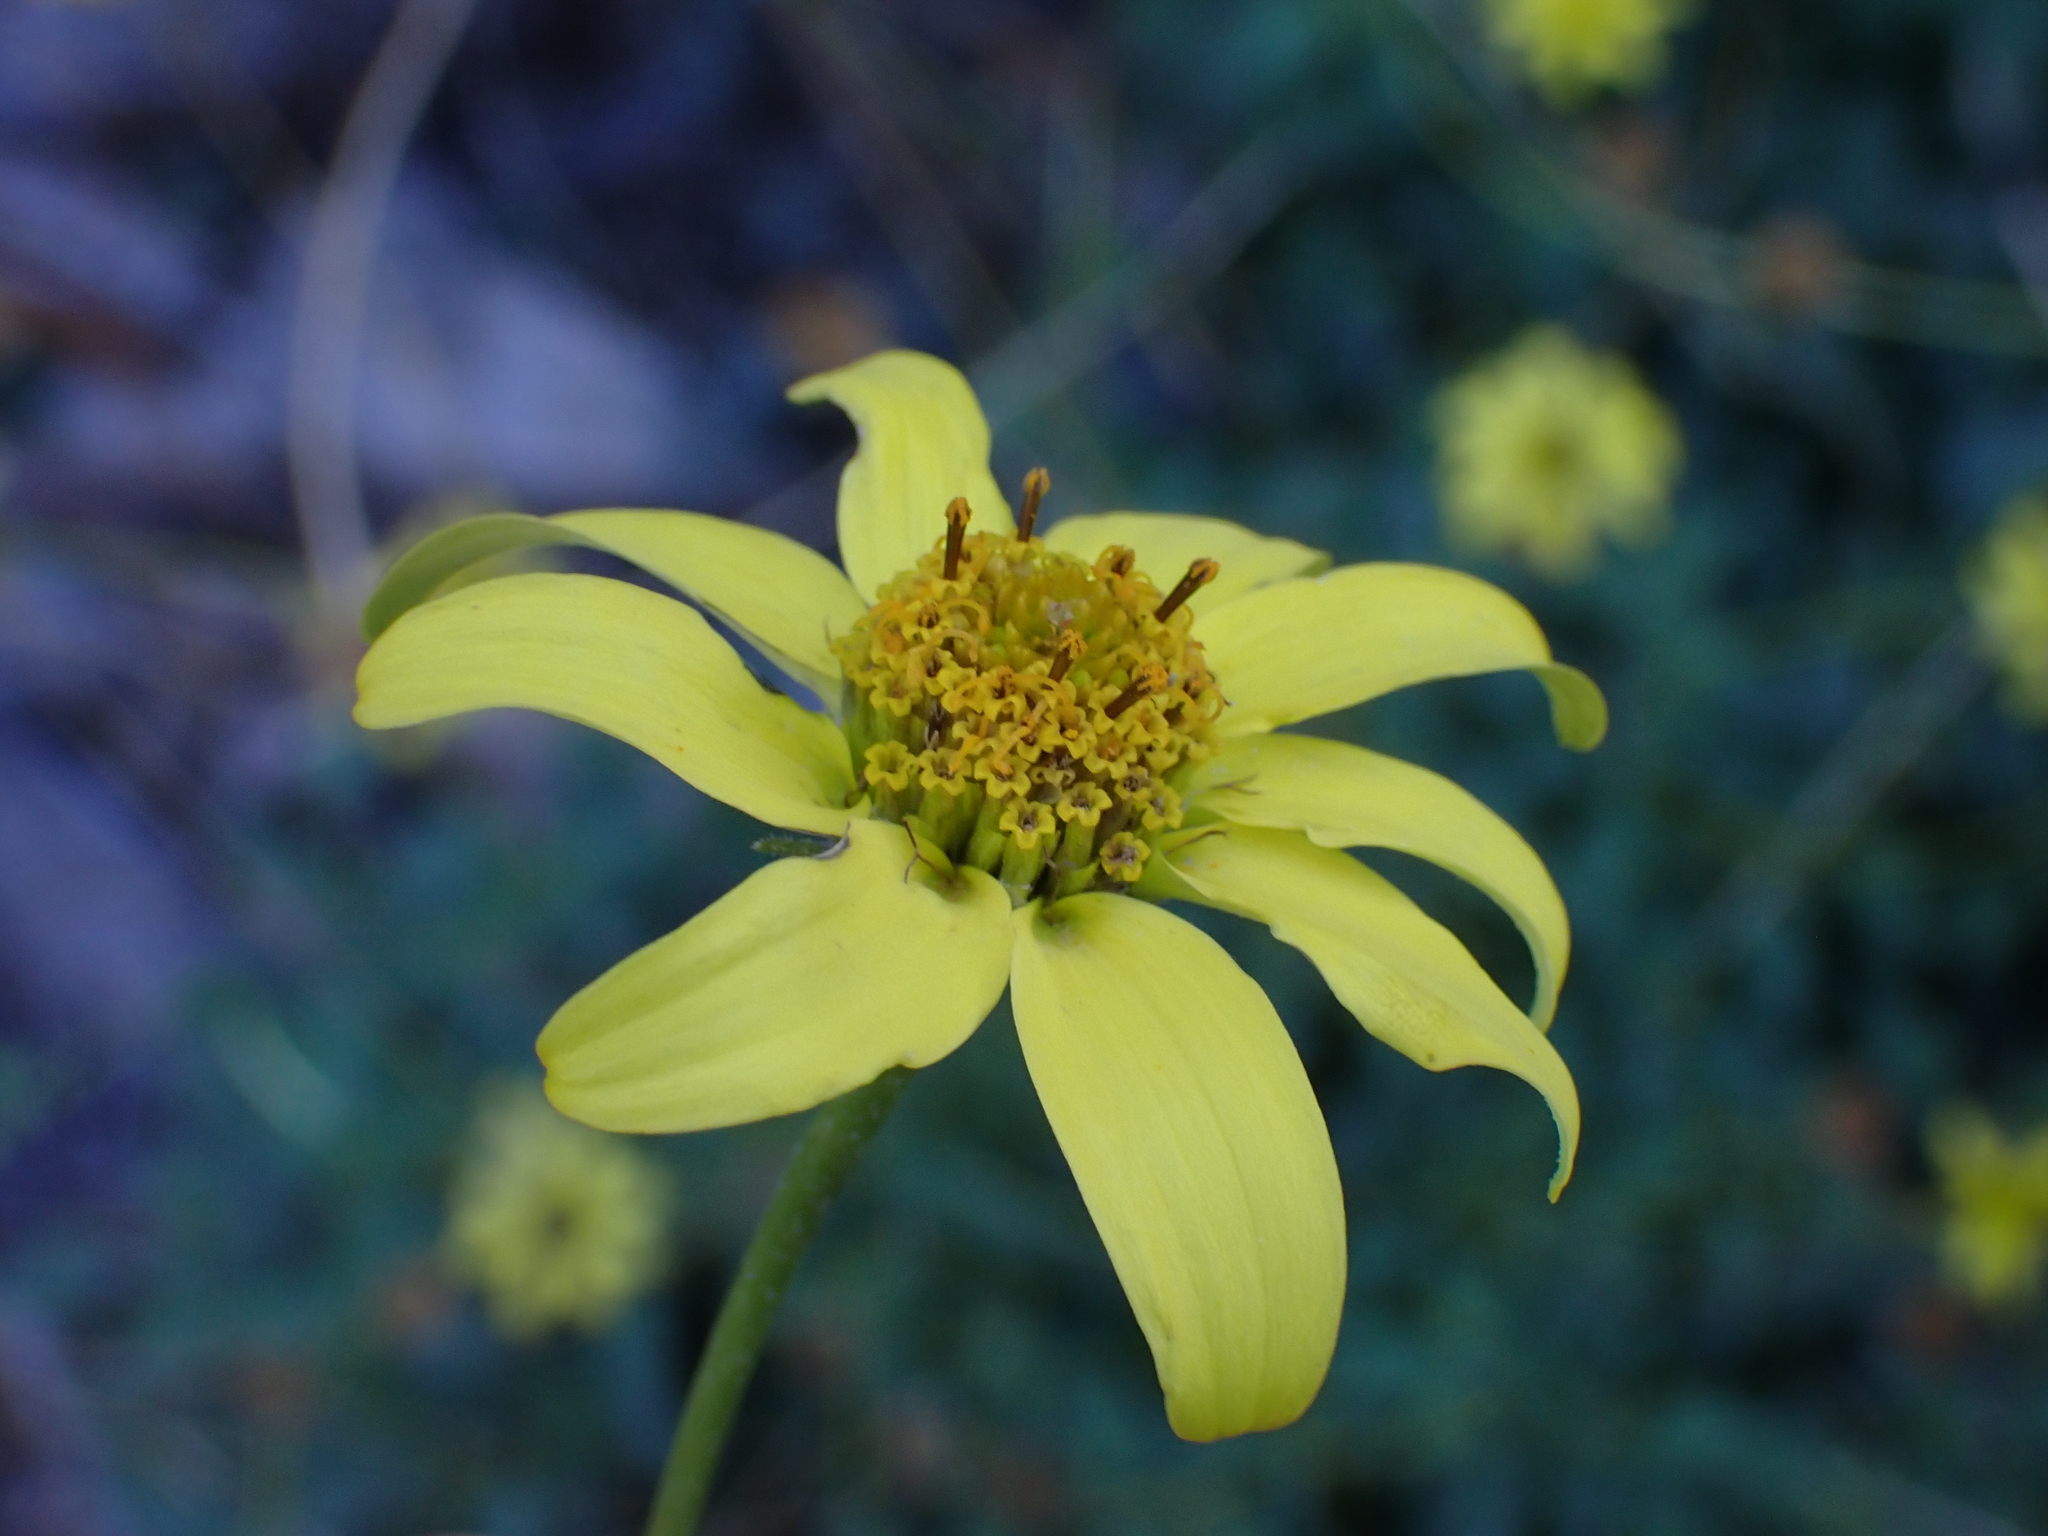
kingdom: Plantae
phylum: Tracheophyta
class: Magnoliopsida
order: Asterales
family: Asteraceae
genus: Heliopsis
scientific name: Heliopsis anomala
